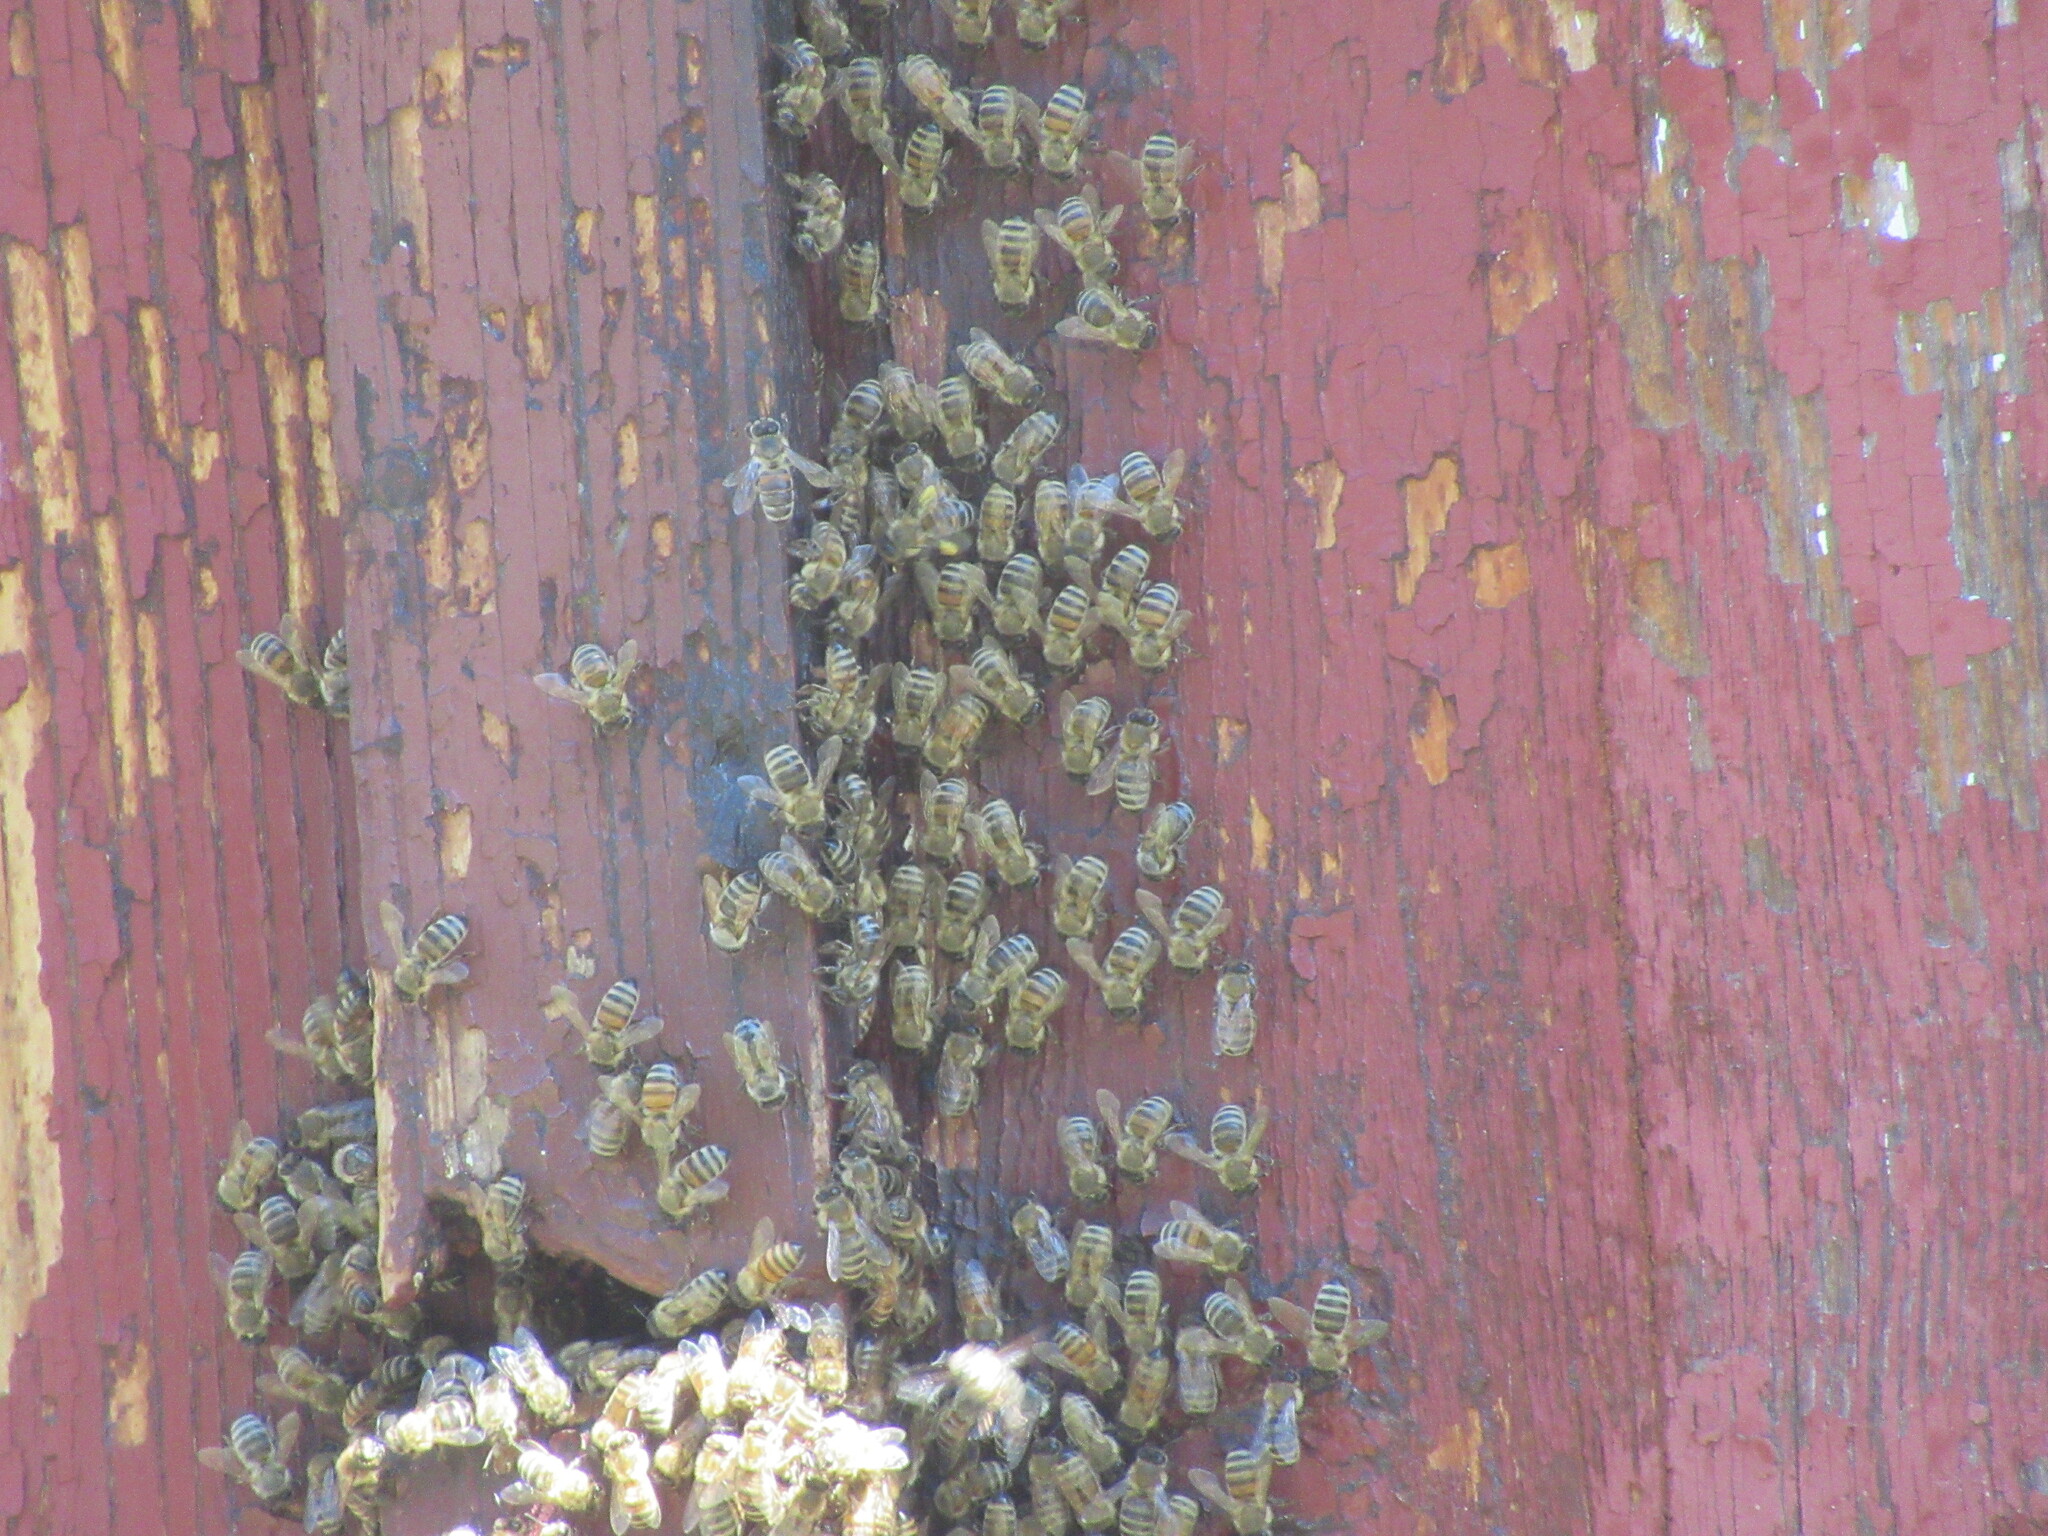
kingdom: Animalia
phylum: Arthropoda
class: Insecta
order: Hymenoptera
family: Apidae
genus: Apis
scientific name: Apis mellifera
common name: Honey bee
